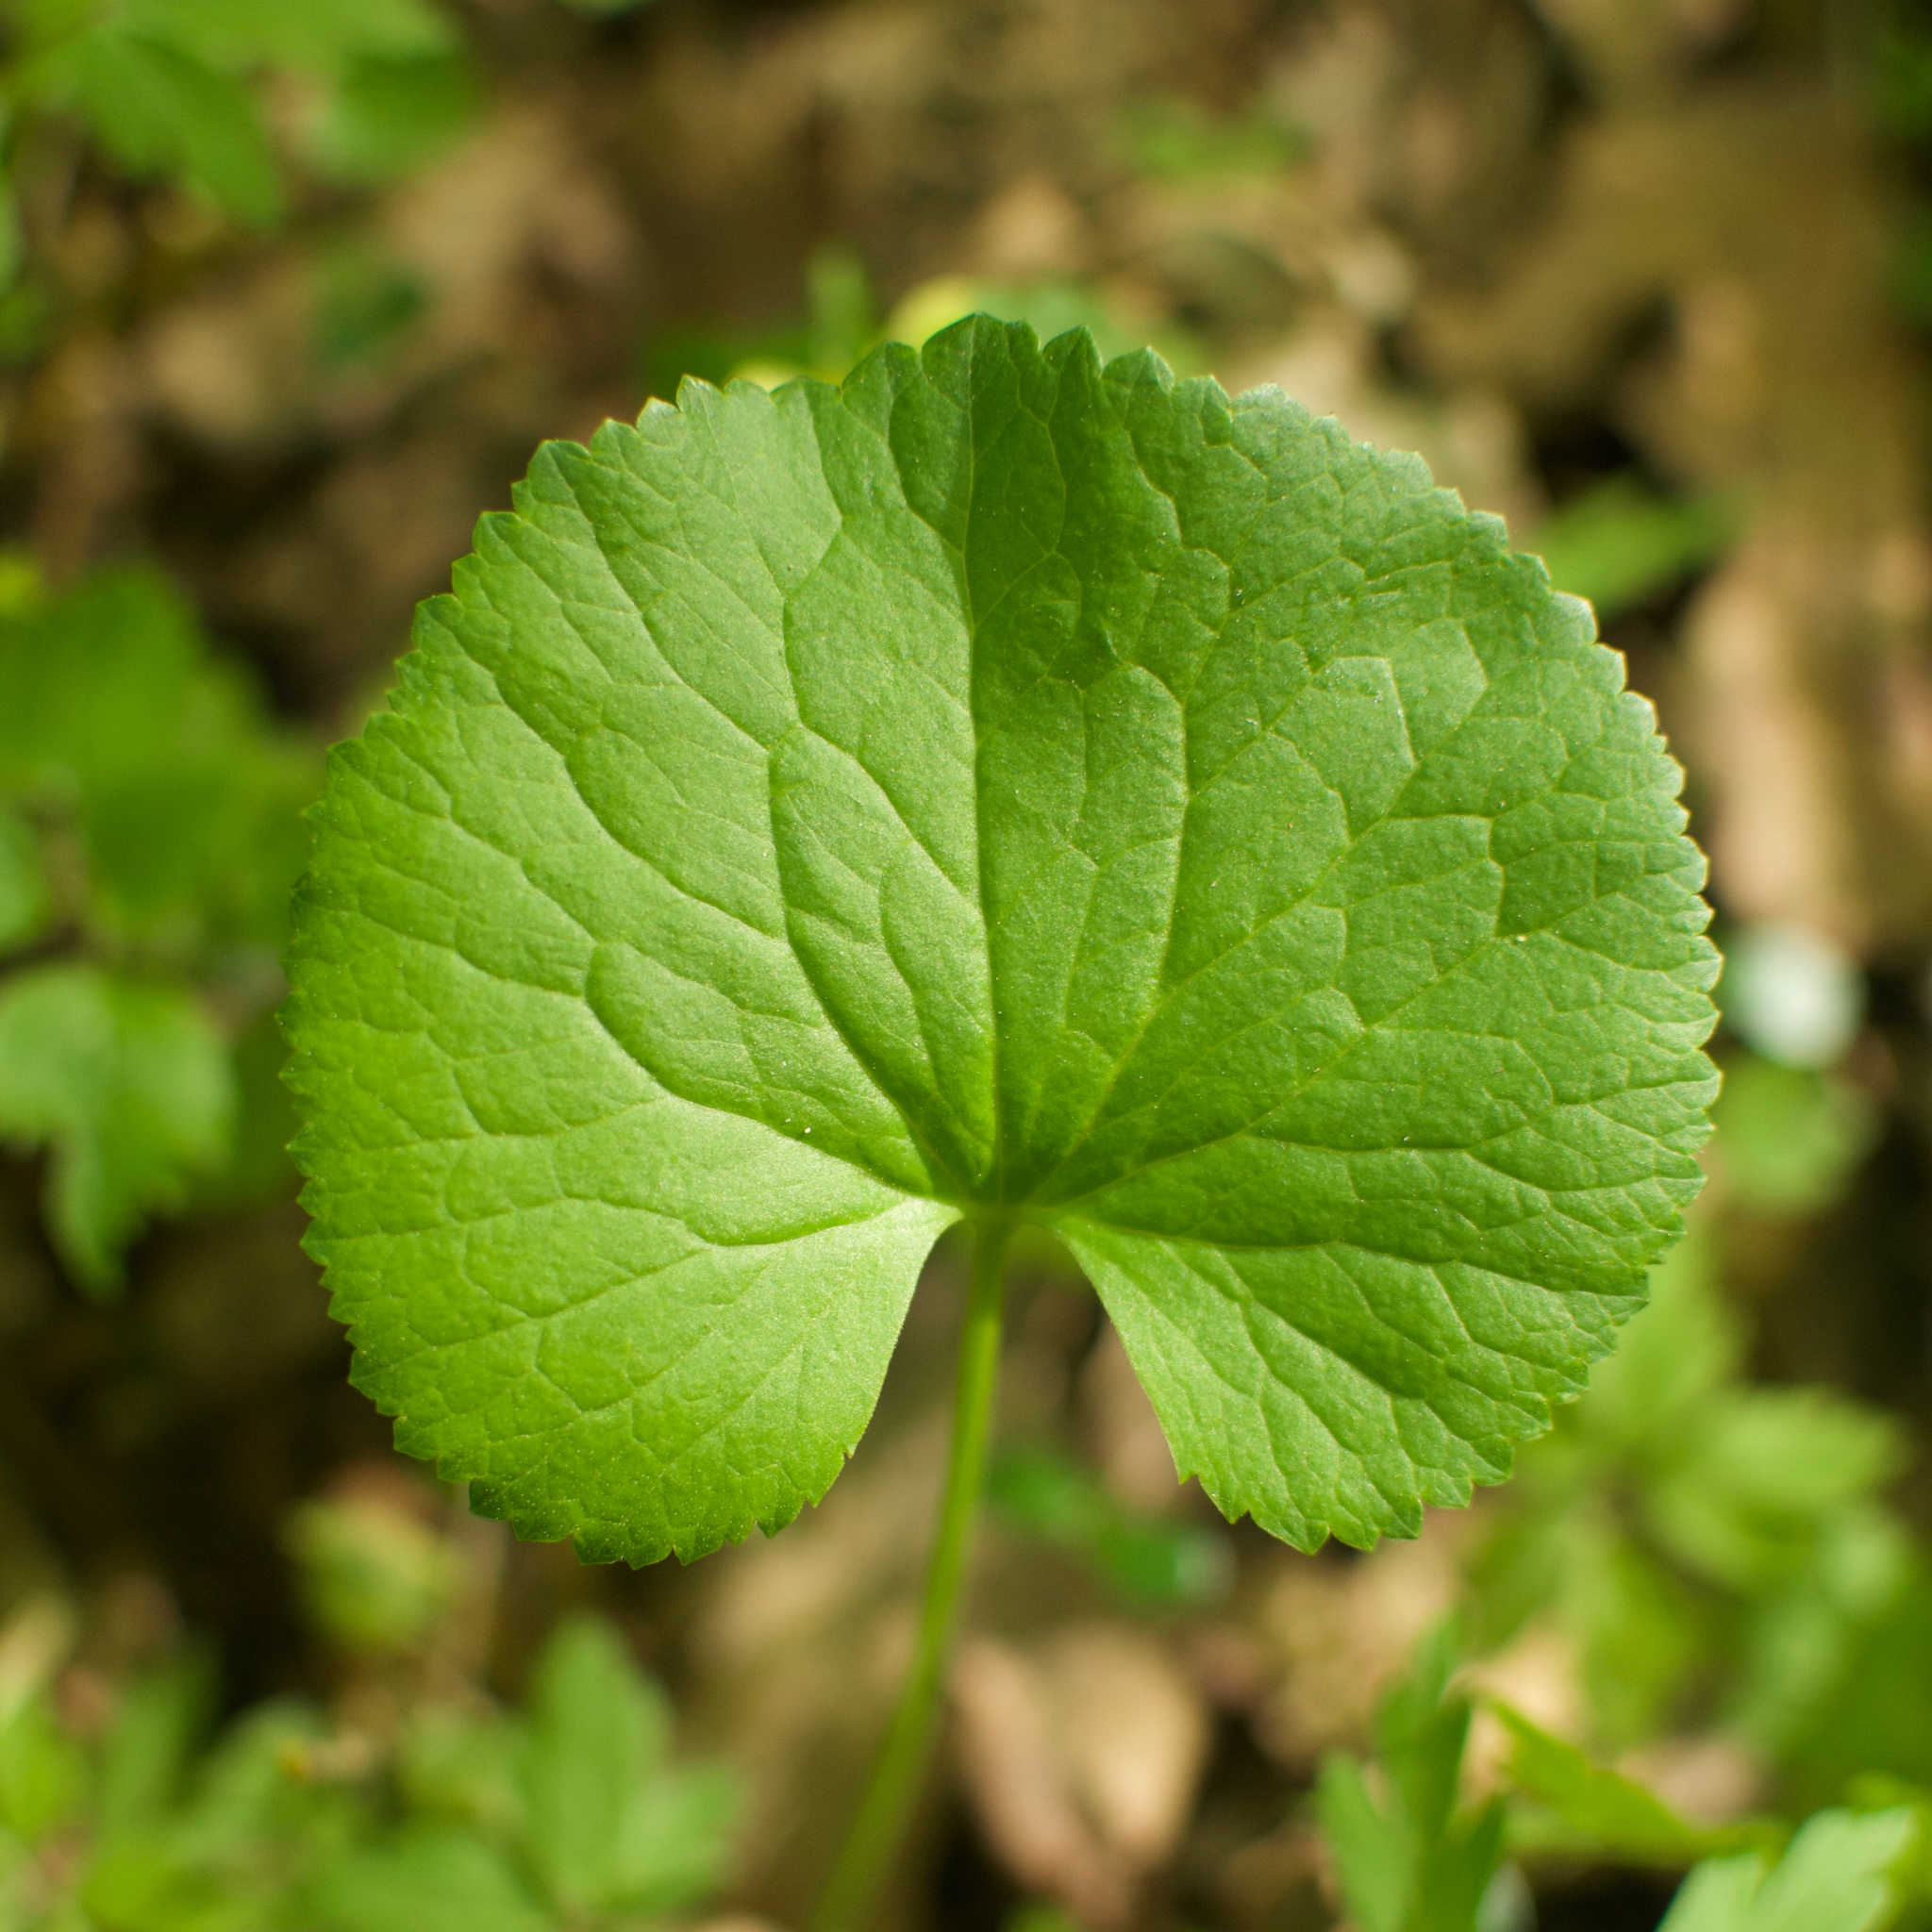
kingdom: Plantae
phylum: Tracheophyta
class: Magnoliopsida
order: Ranunculales
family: Ranunculaceae
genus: Ranunculus
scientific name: Ranunculus cassubicus
